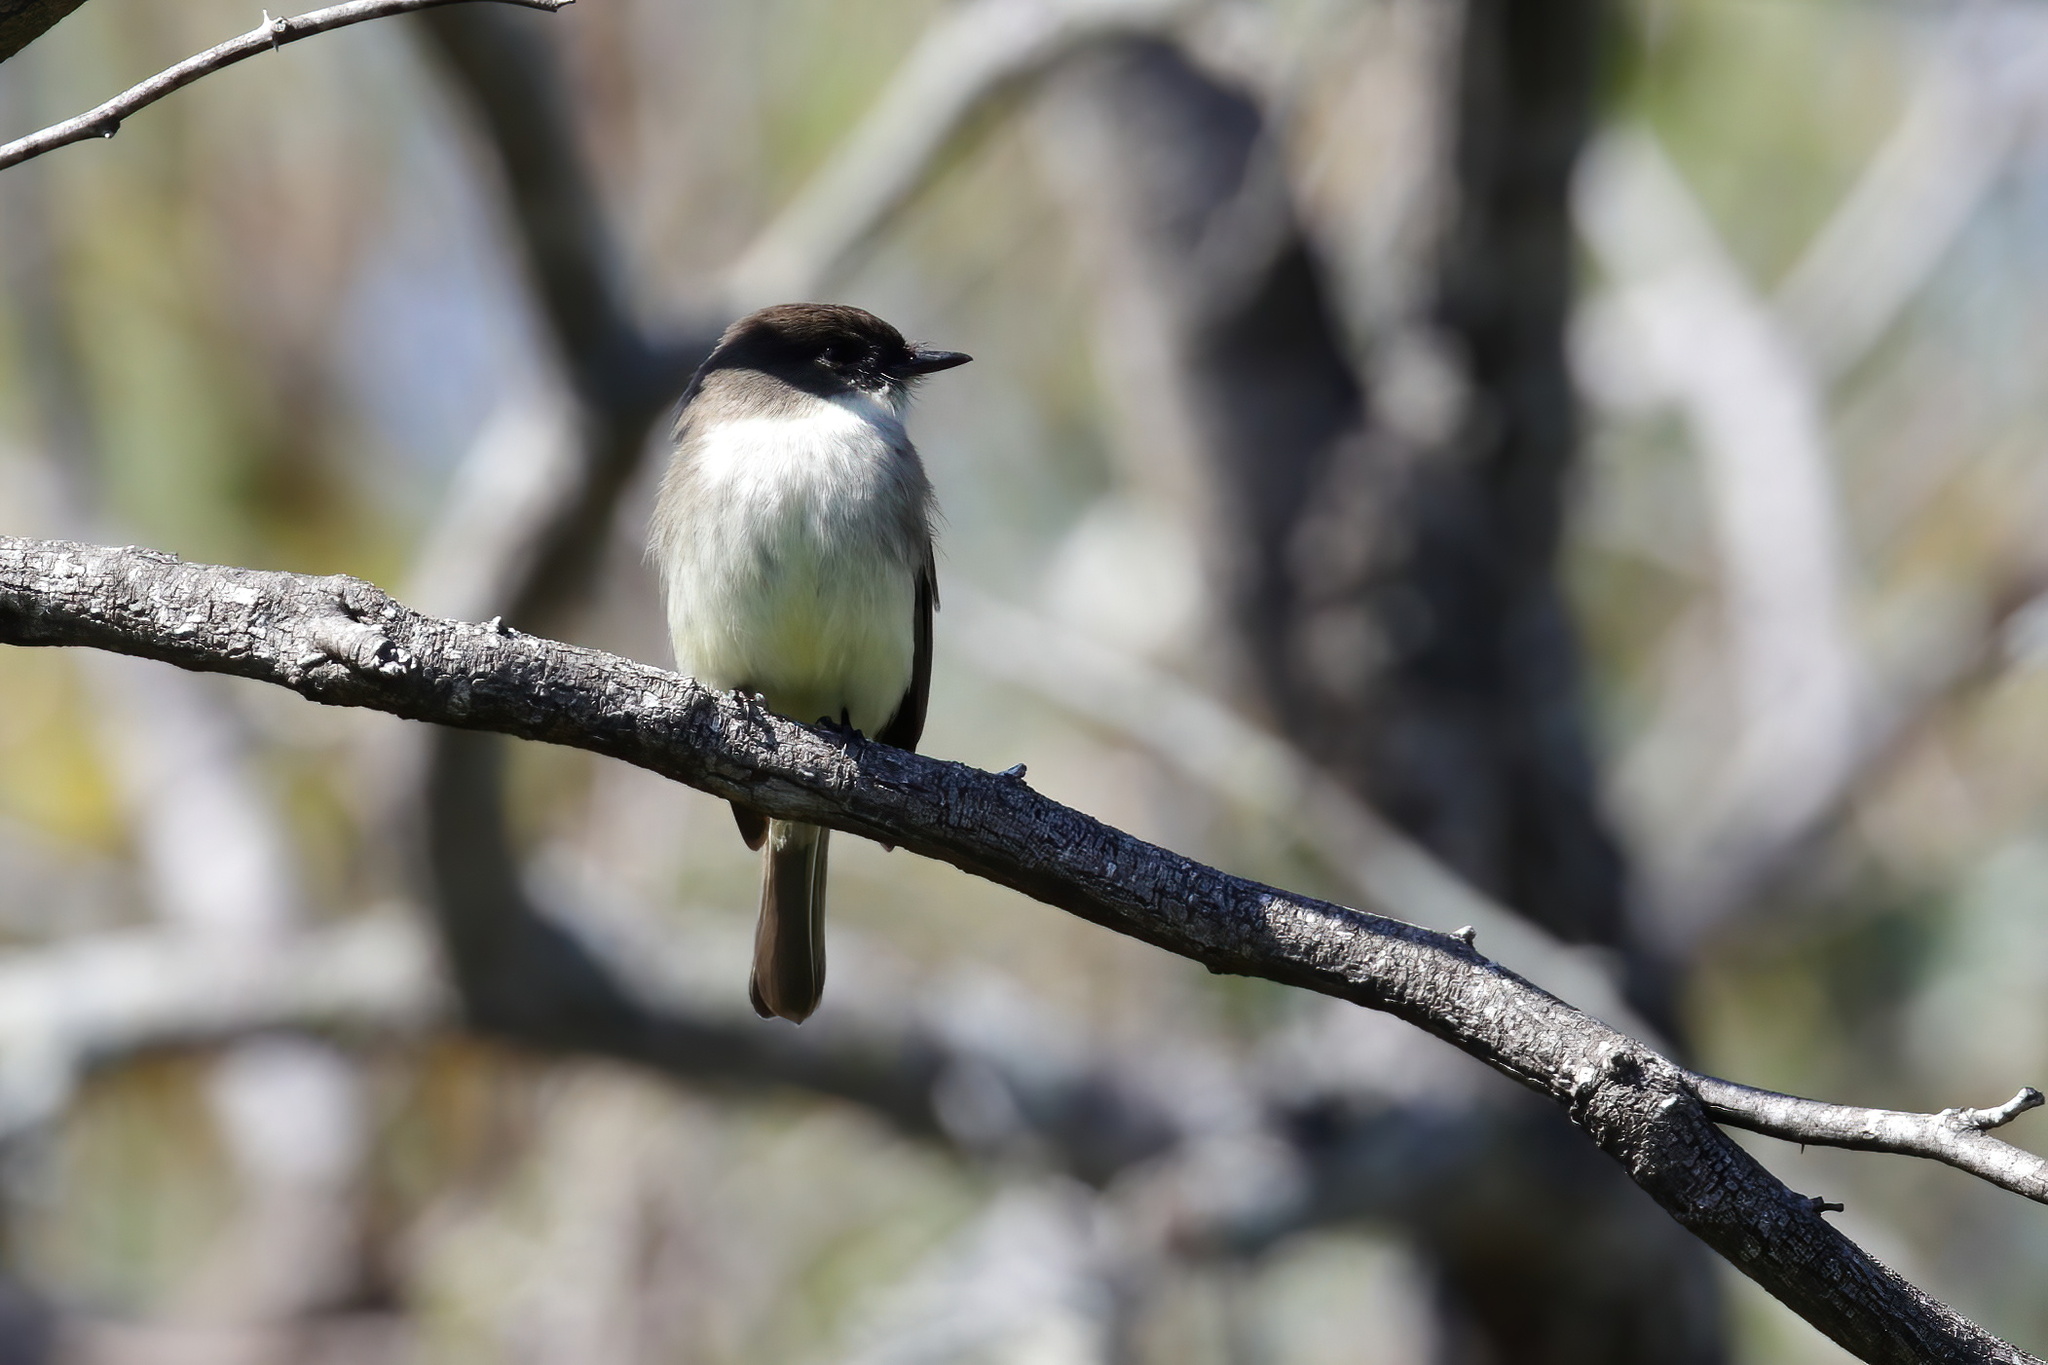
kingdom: Animalia
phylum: Chordata
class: Aves
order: Passeriformes
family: Tyrannidae
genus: Sayornis
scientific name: Sayornis phoebe
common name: Eastern phoebe
